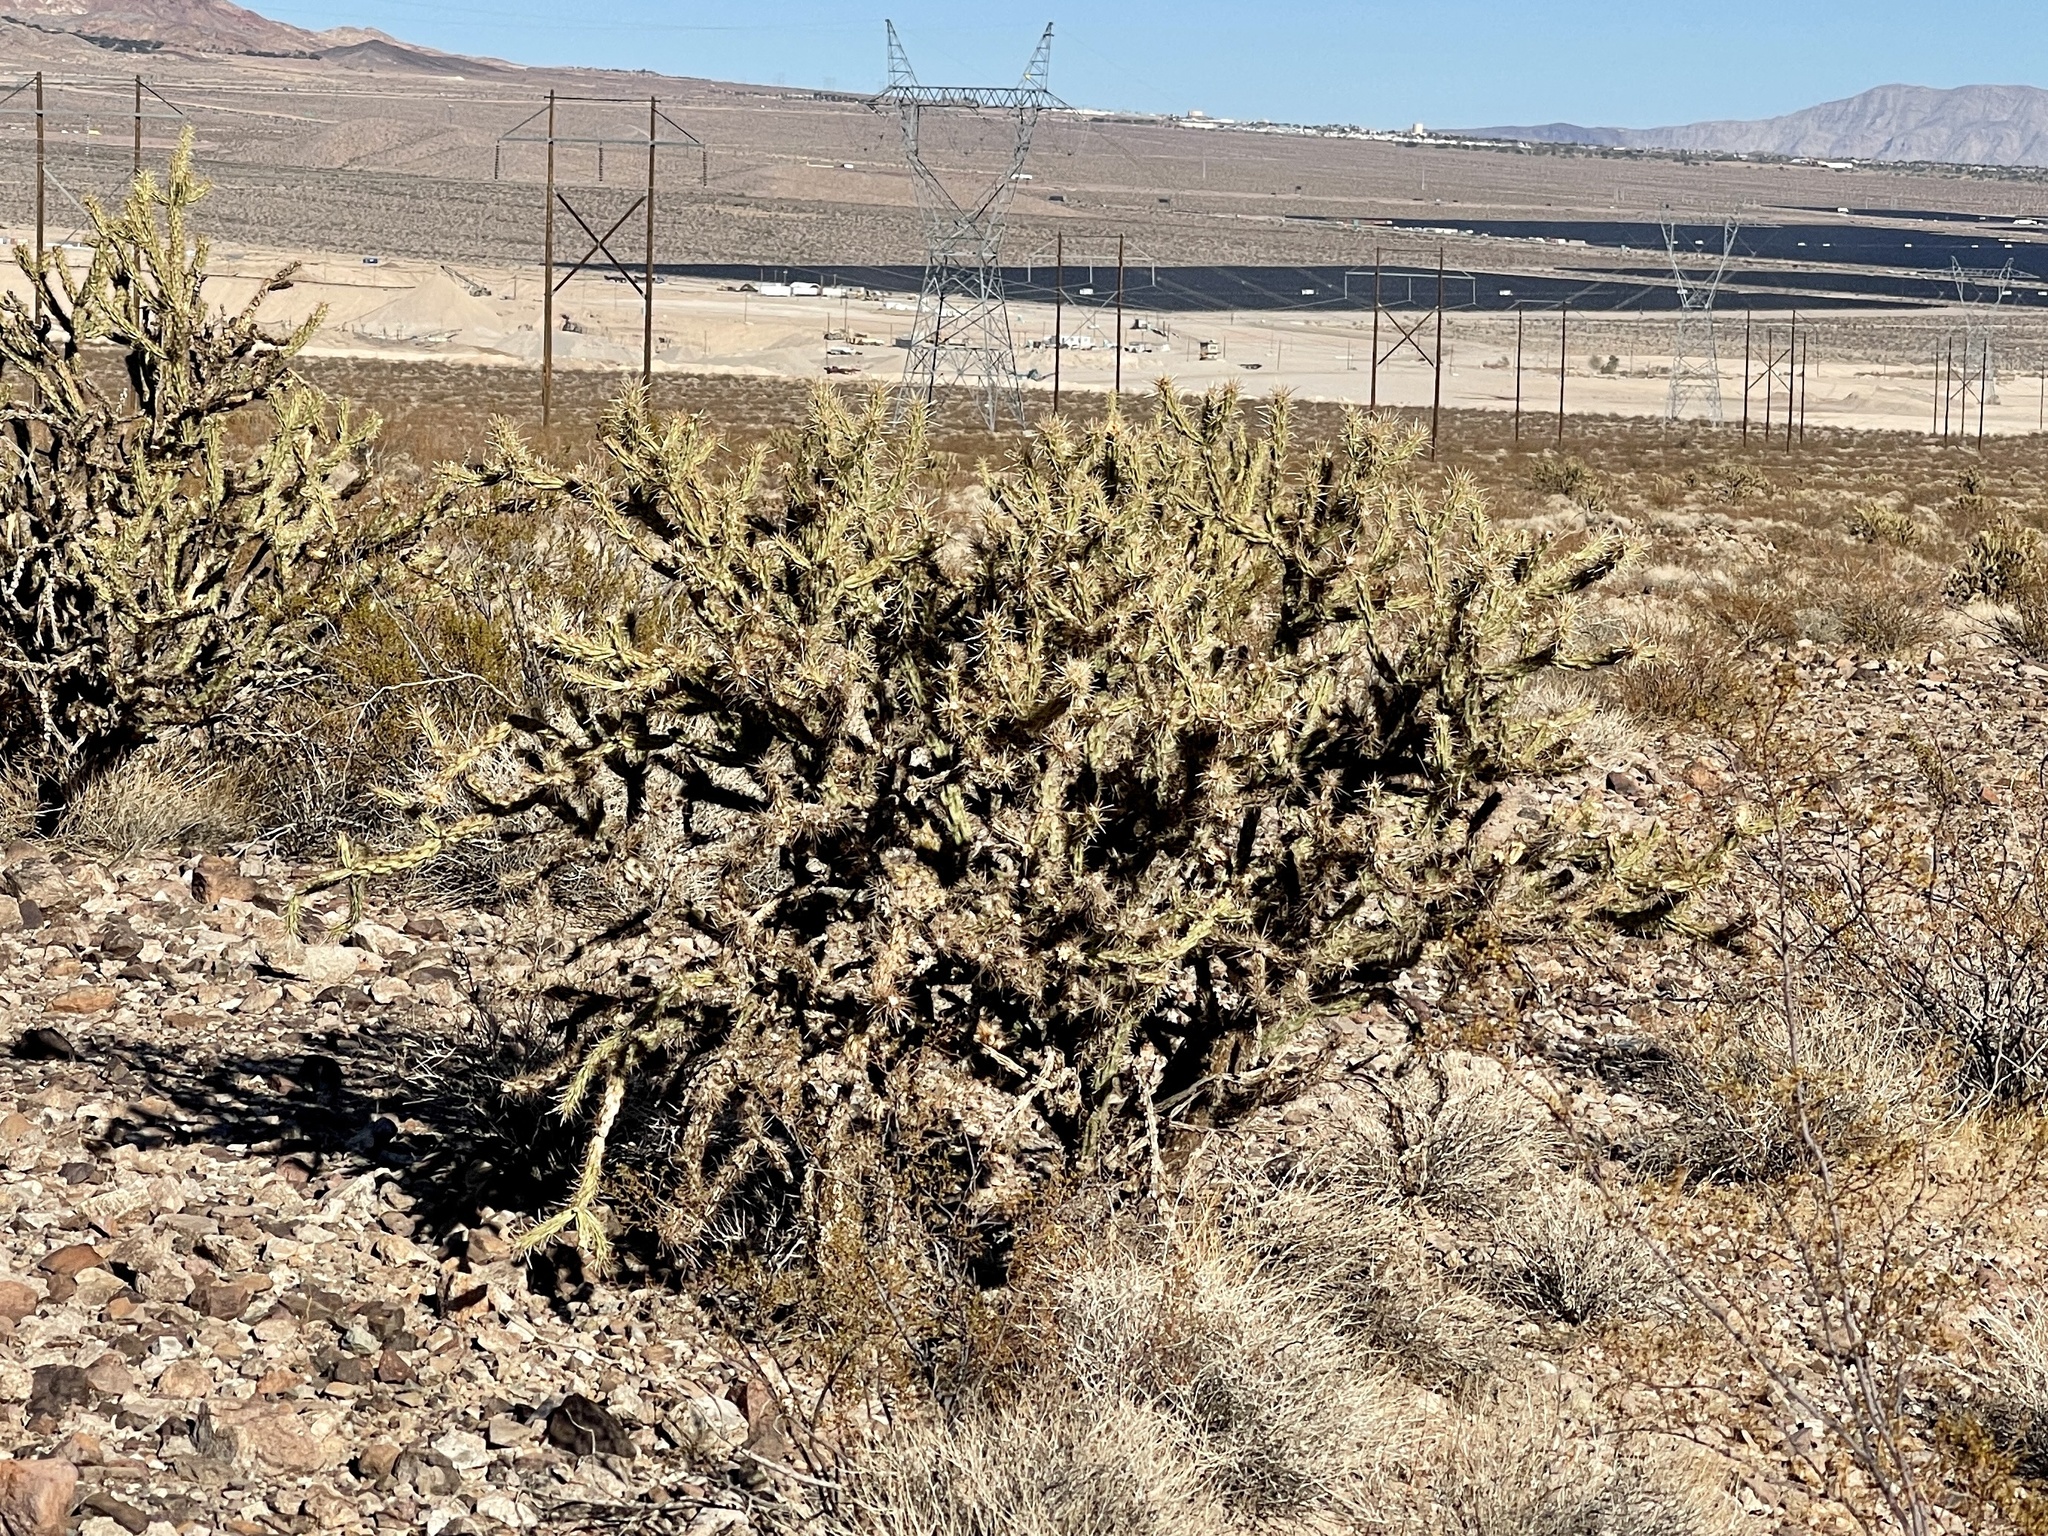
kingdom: Plantae
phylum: Tracheophyta
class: Magnoliopsida
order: Caryophyllales
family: Cactaceae
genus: Cylindropuntia
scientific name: Cylindropuntia acanthocarpa
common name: Buckhorn cholla
